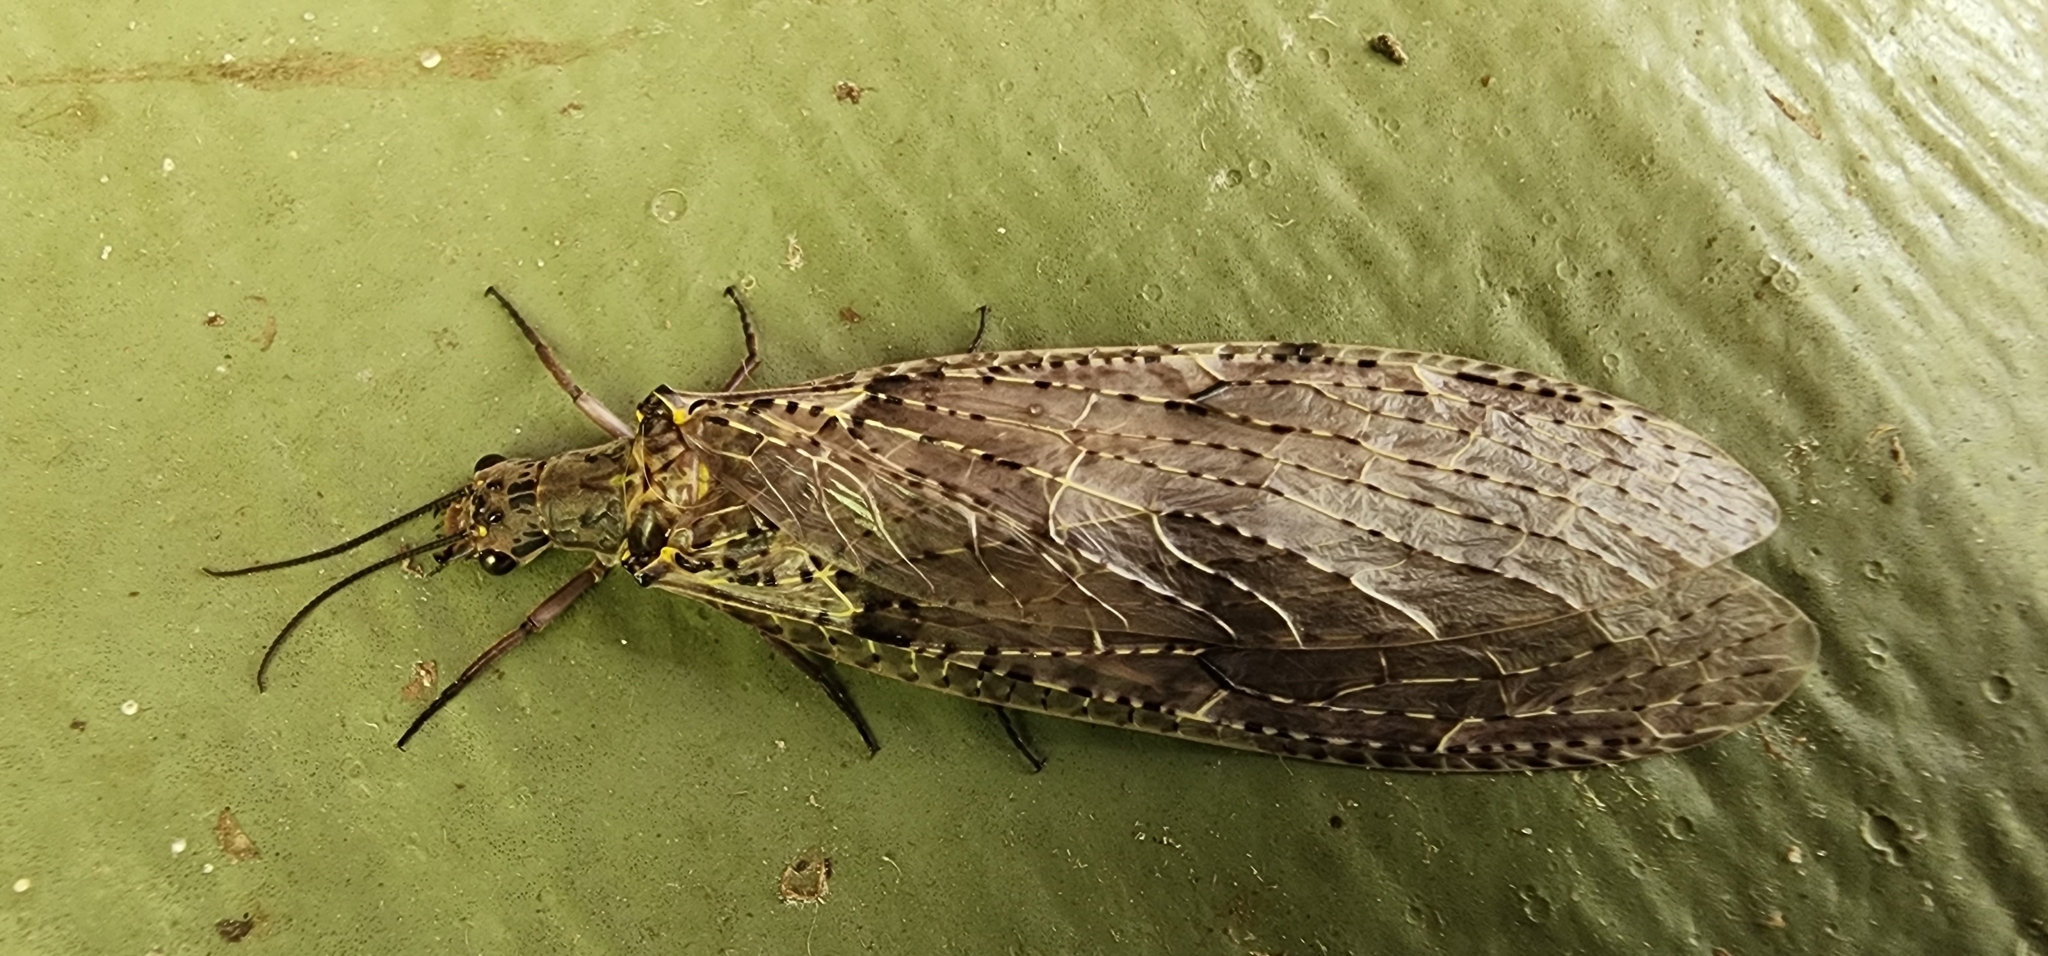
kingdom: Animalia
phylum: Arthropoda
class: Insecta
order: Megaloptera
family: Corydalidae
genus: Chauliodes
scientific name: Chauliodes rastricornis
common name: Spring fishfly
